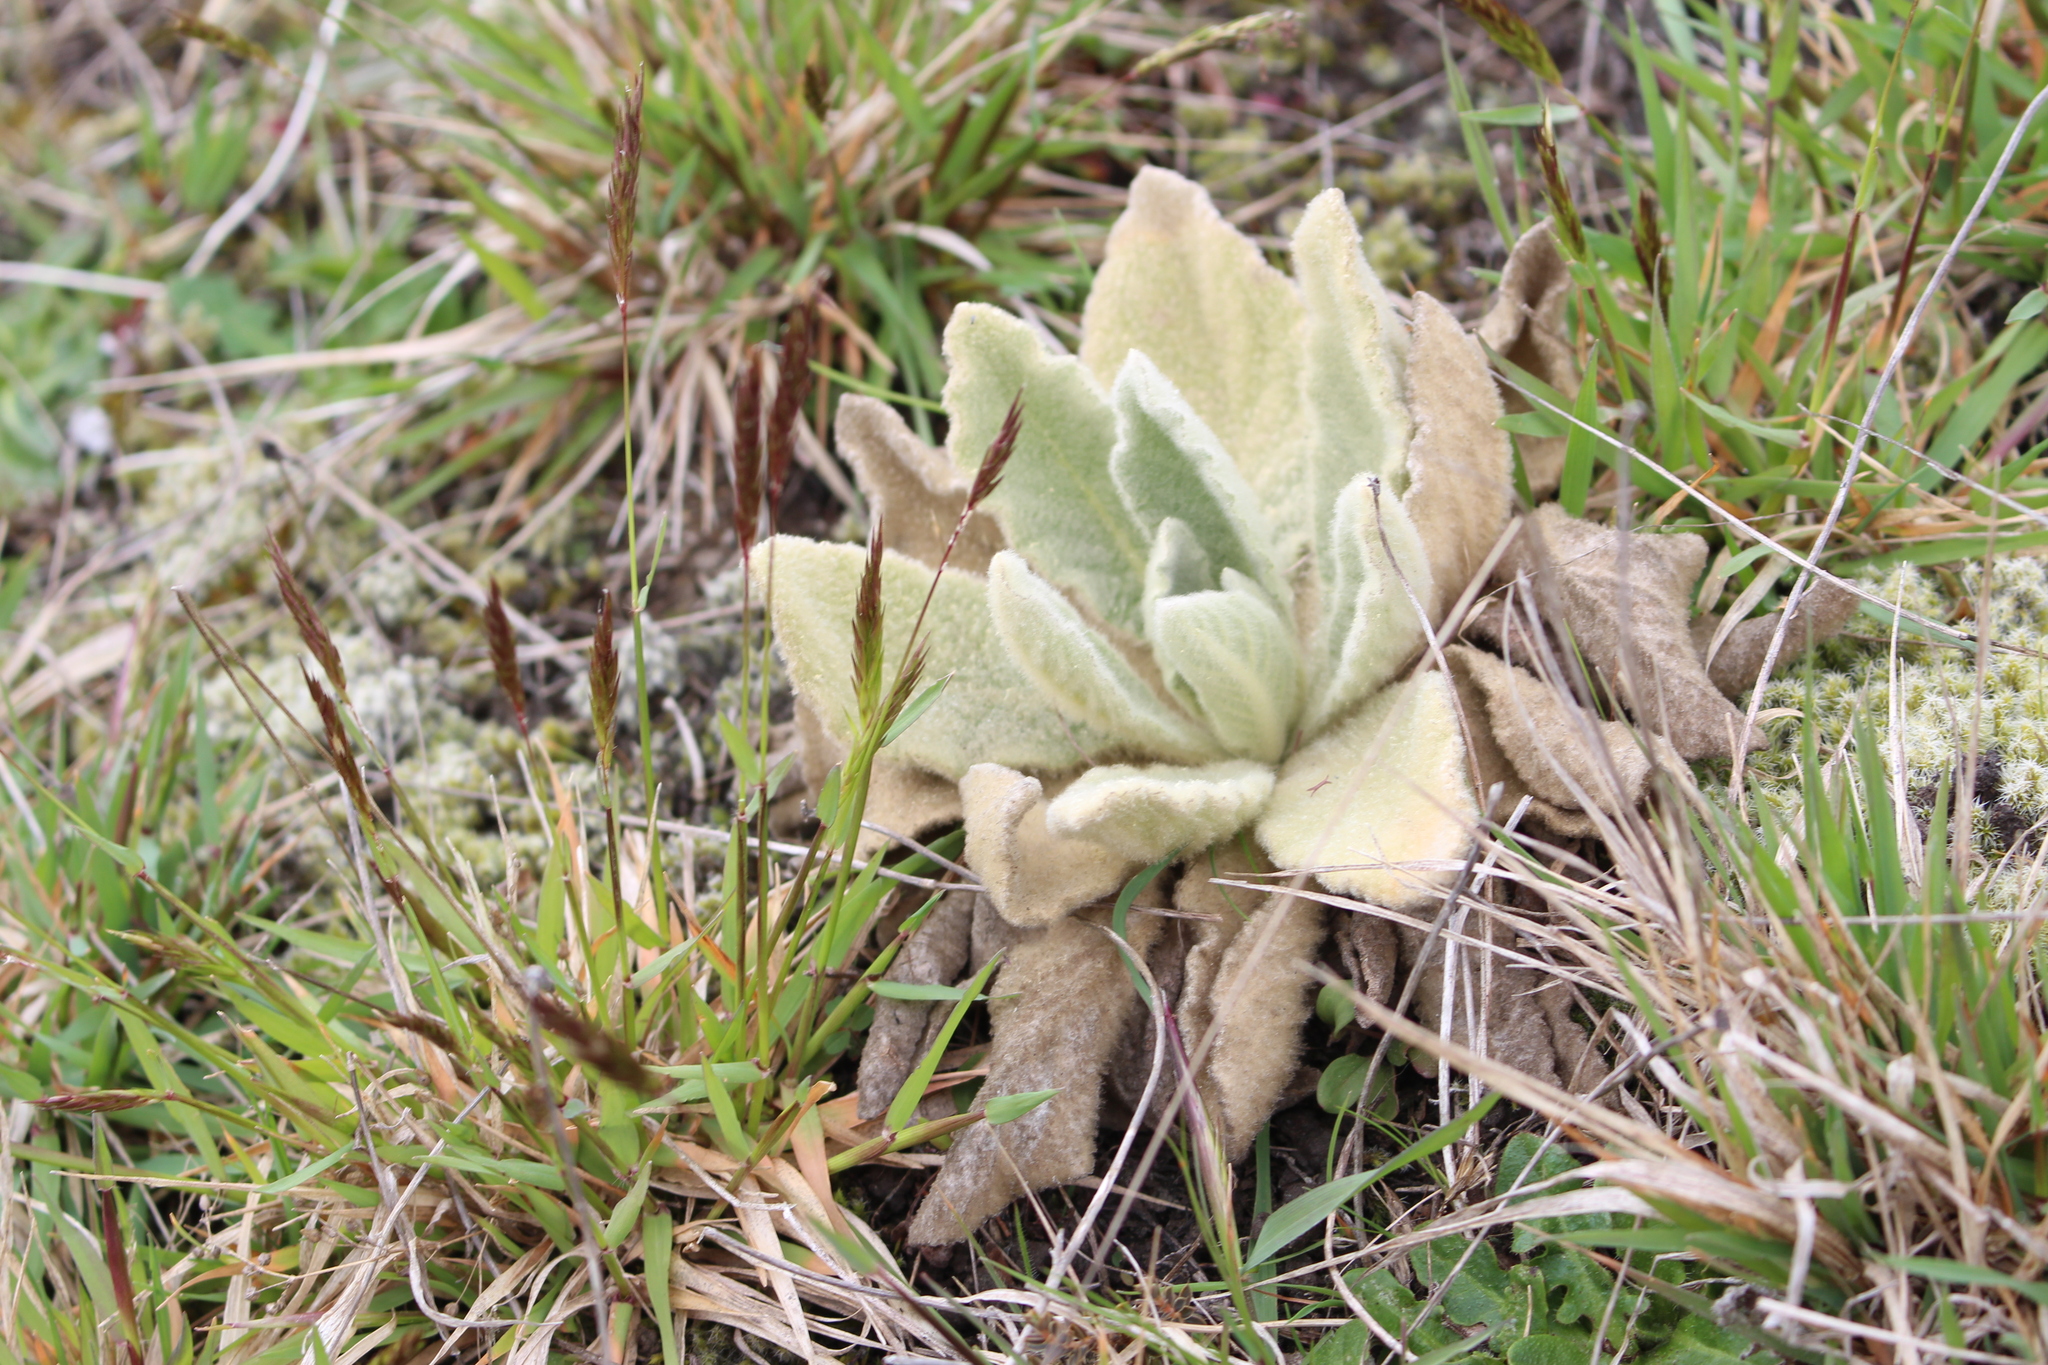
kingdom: Plantae
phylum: Tracheophyta
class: Magnoliopsida
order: Lamiales
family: Scrophulariaceae
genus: Verbascum
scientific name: Verbascum thapsus
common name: Common mullein
